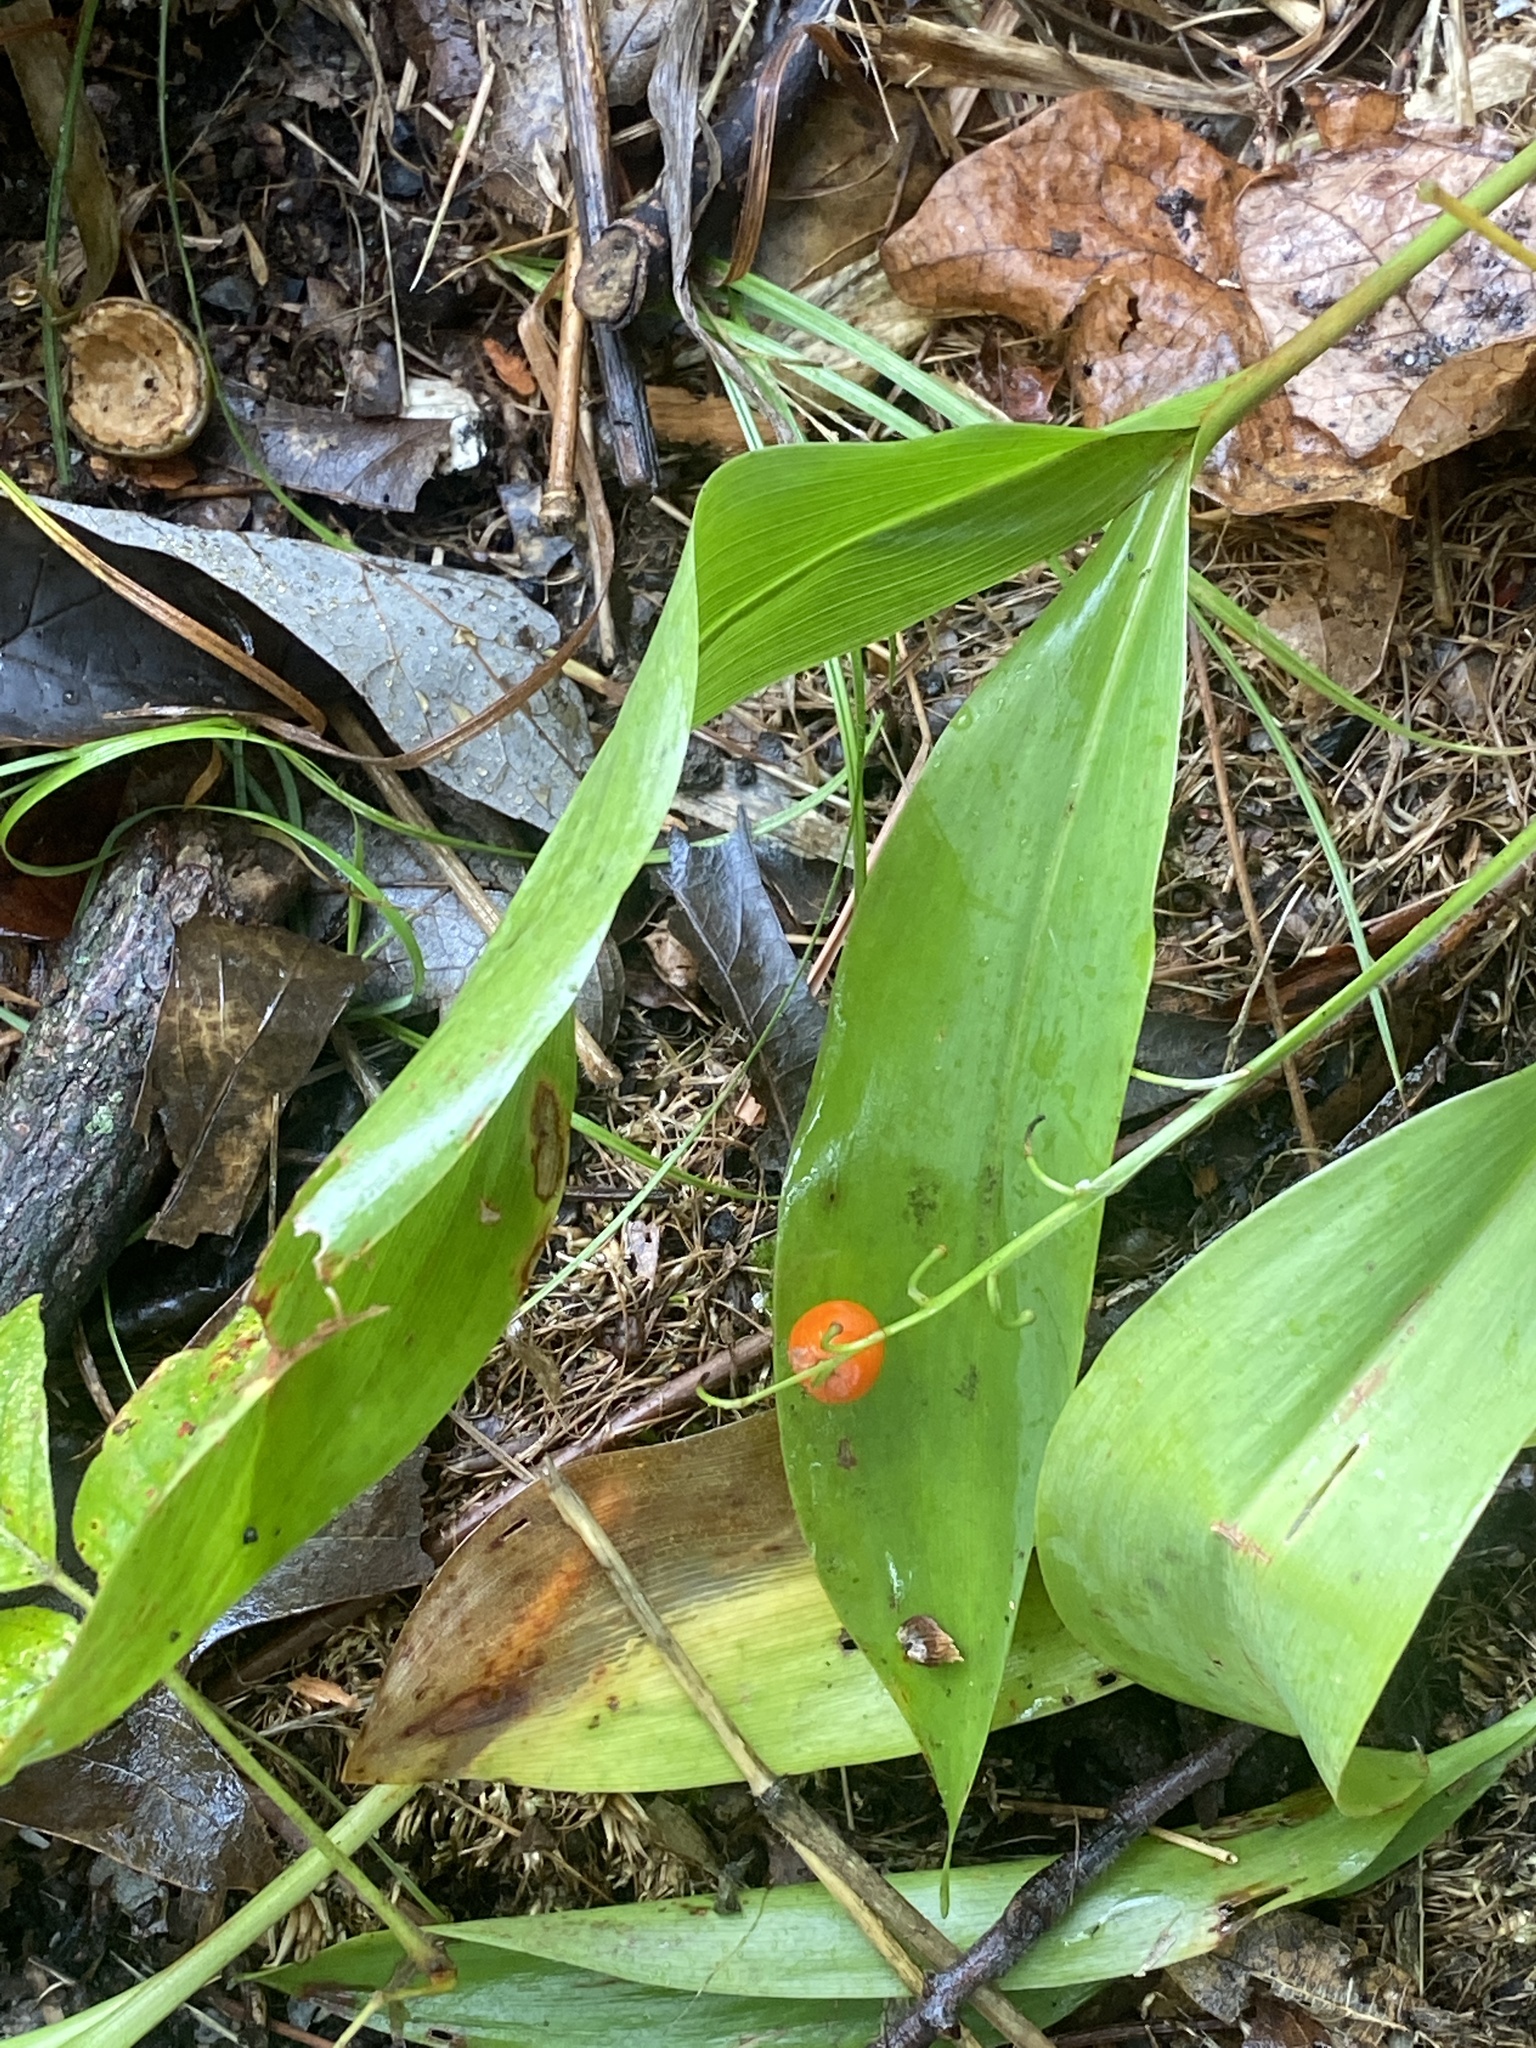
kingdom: Plantae
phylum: Tracheophyta
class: Liliopsida
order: Asparagales
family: Asparagaceae
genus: Convallaria
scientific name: Convallaria majalis
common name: Lily-of-the-valley
